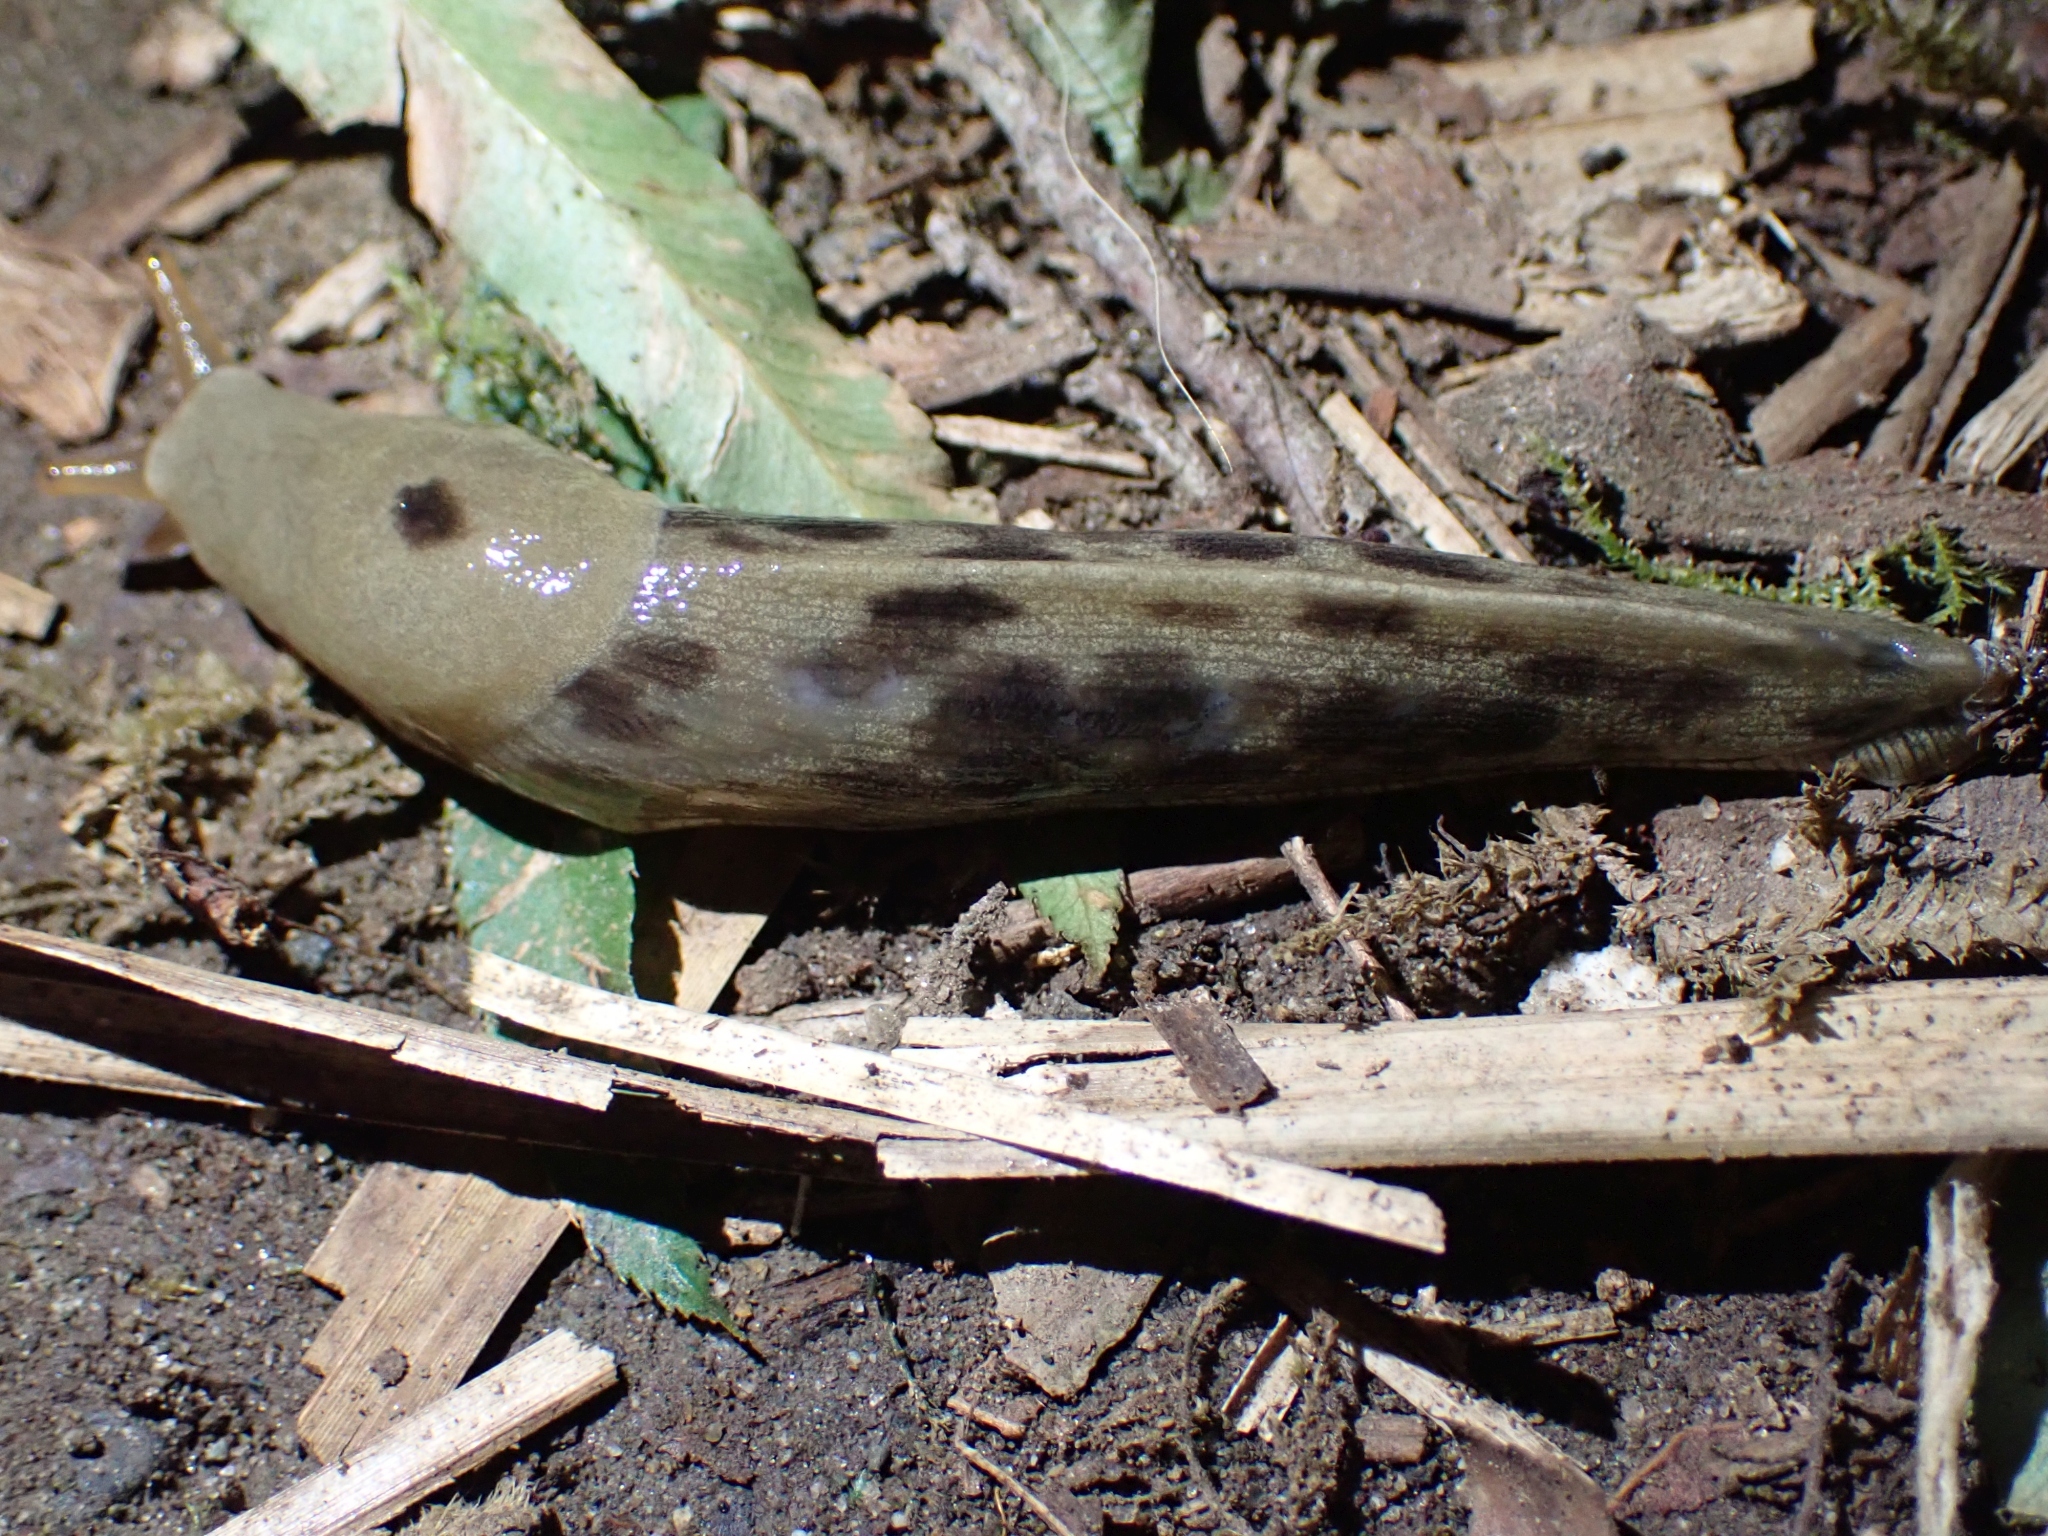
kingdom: Animalia
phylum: Mollusca
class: Gastropoda
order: Stylommatophora
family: Ariolimacidae
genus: Ariolimax
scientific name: Ariolimax columbianus
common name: Pacific banana slug
